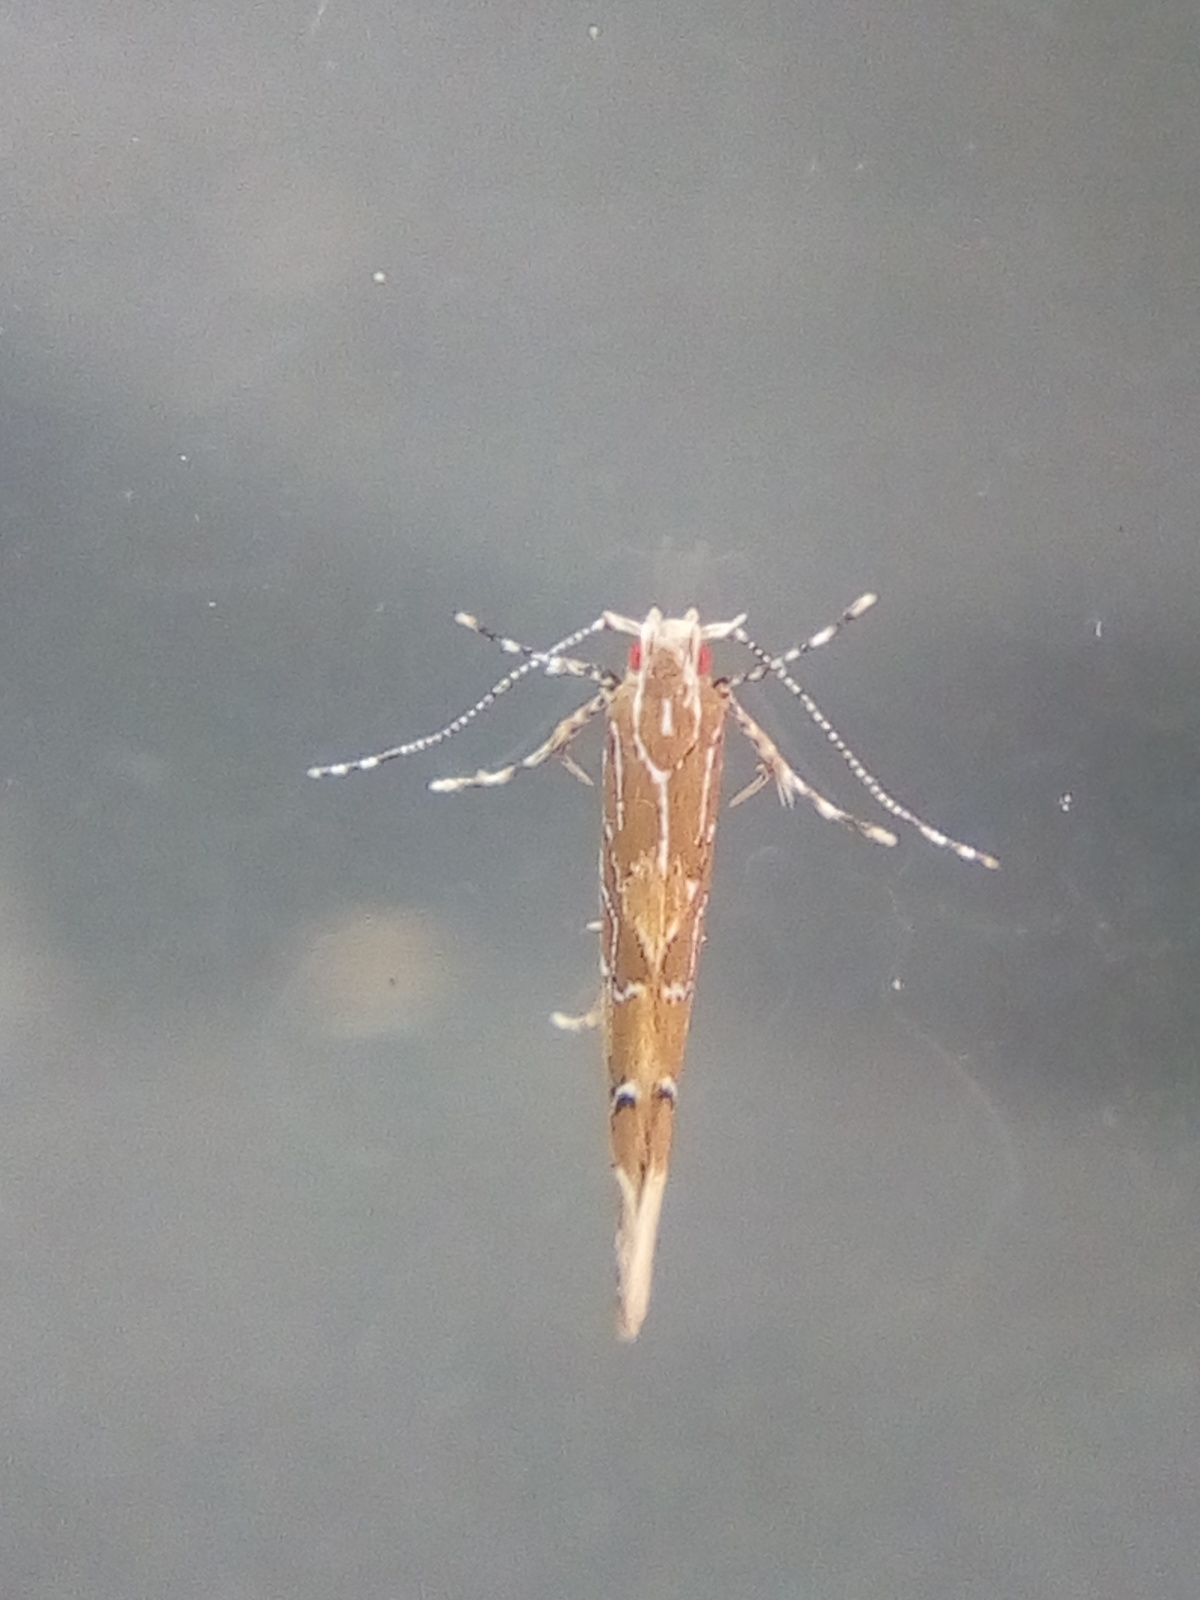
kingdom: Animalia
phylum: Arthropoda
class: Insecta
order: Lepidoptera
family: Cosmopterigidae
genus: Pyroderces
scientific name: Pyroderces apparitella
